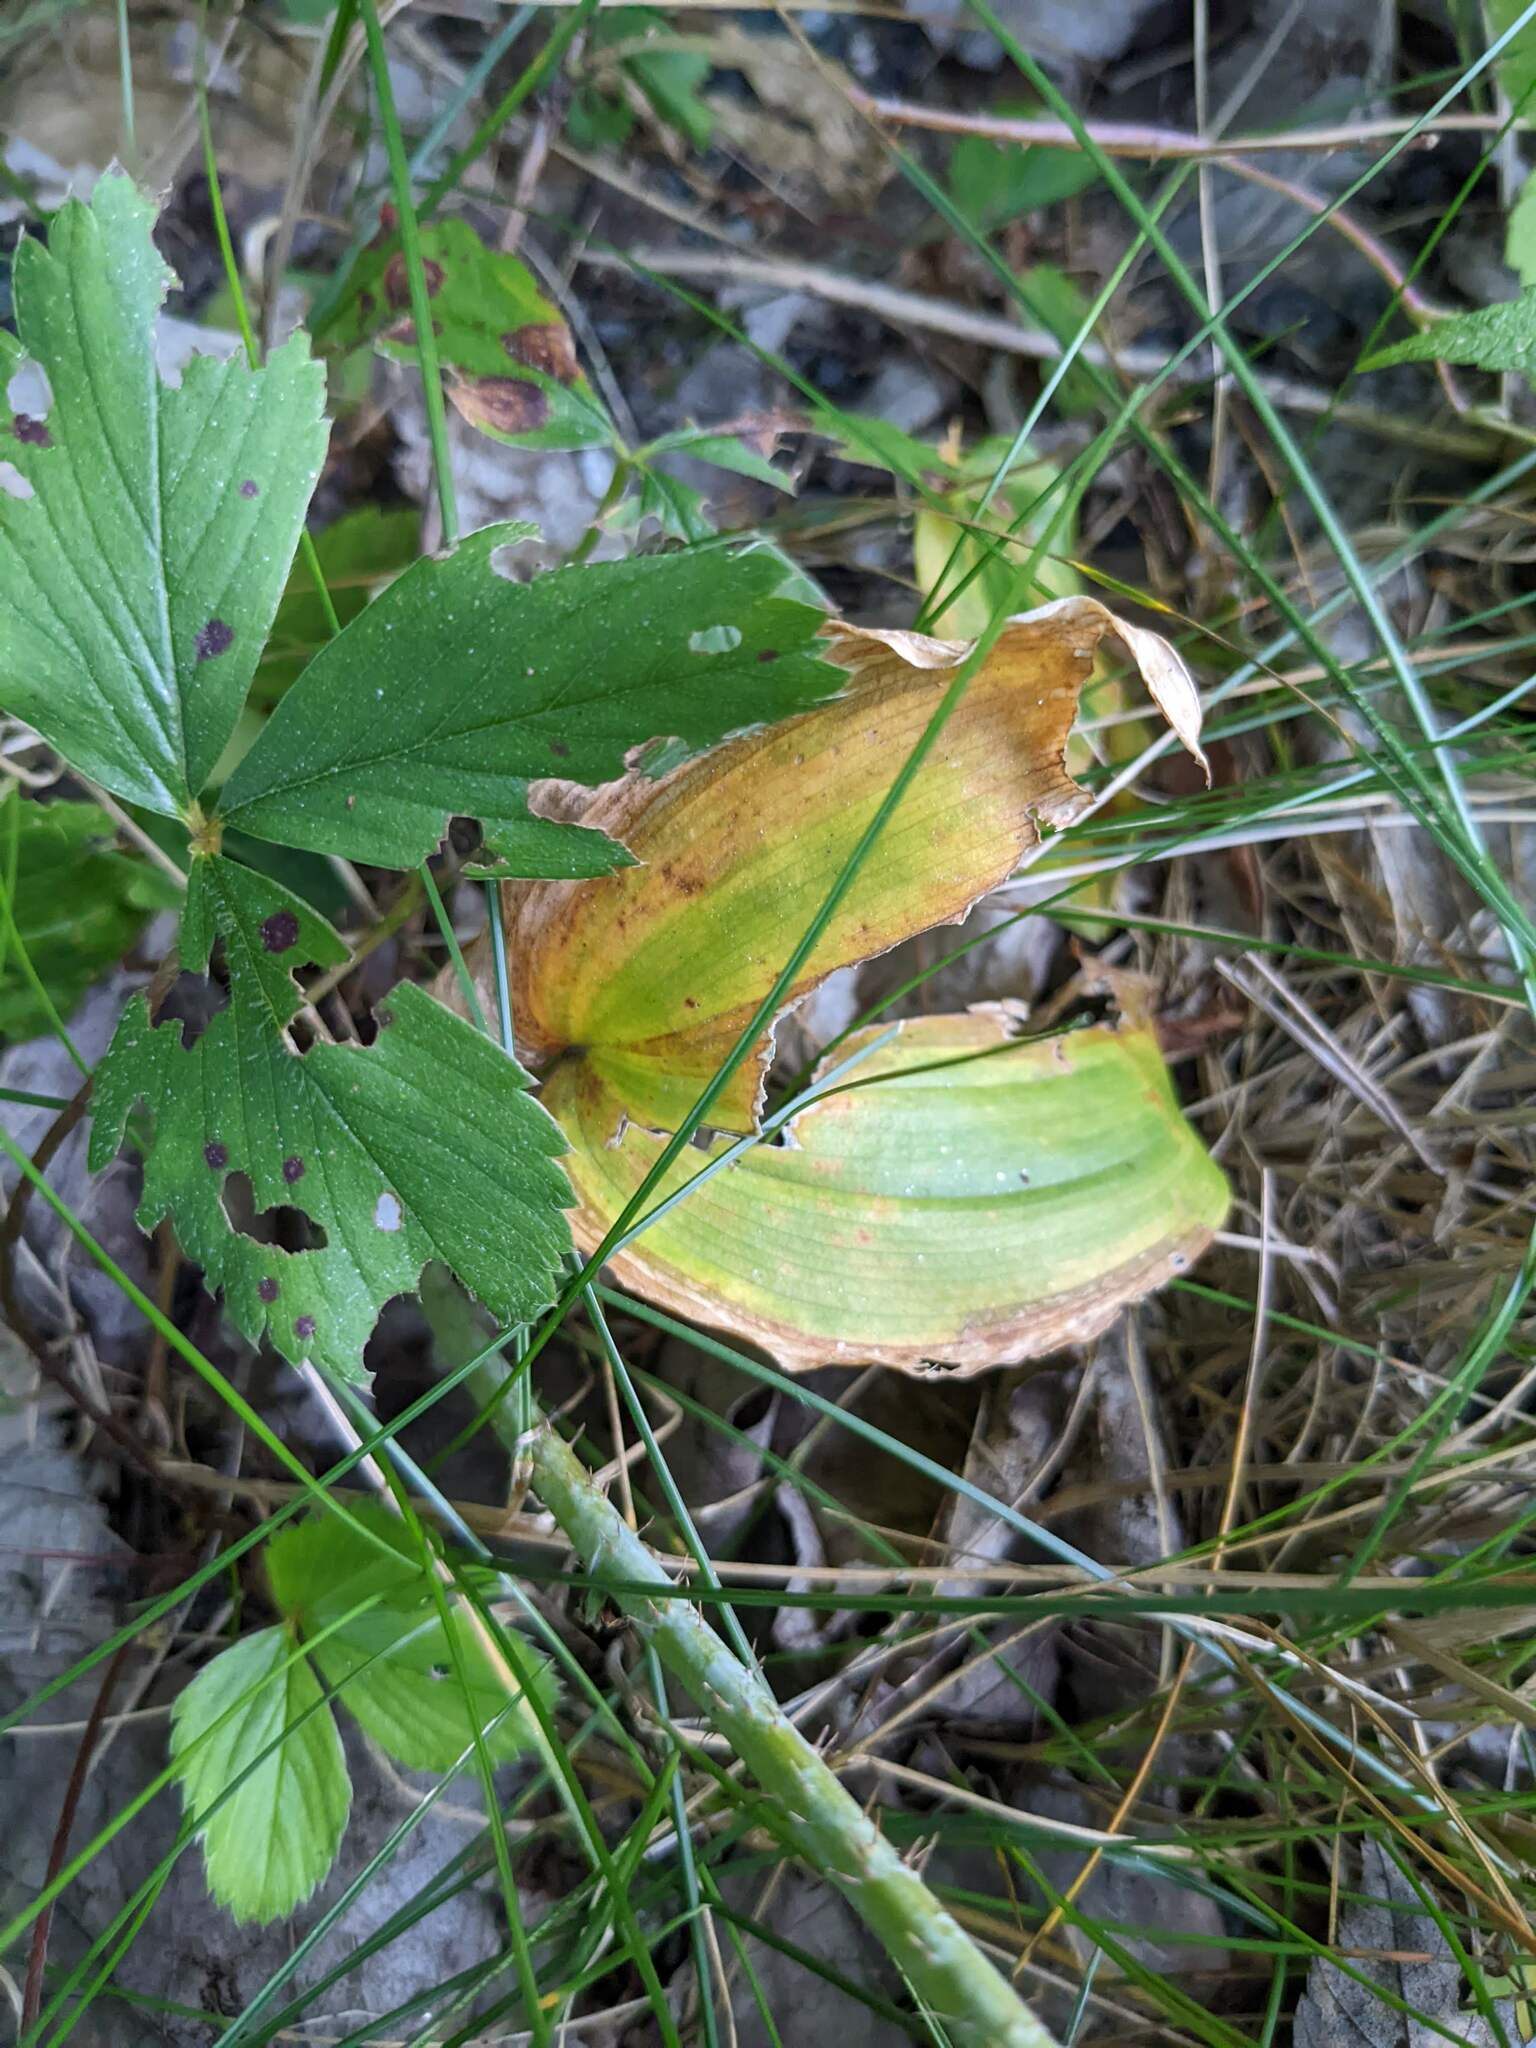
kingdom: Plantae
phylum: Tracheophyta
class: Liliopsida
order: Asparagales
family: Asparagaceae
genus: Maianthemum
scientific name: Maianthemum canadense
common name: False lily-of-the-valley
